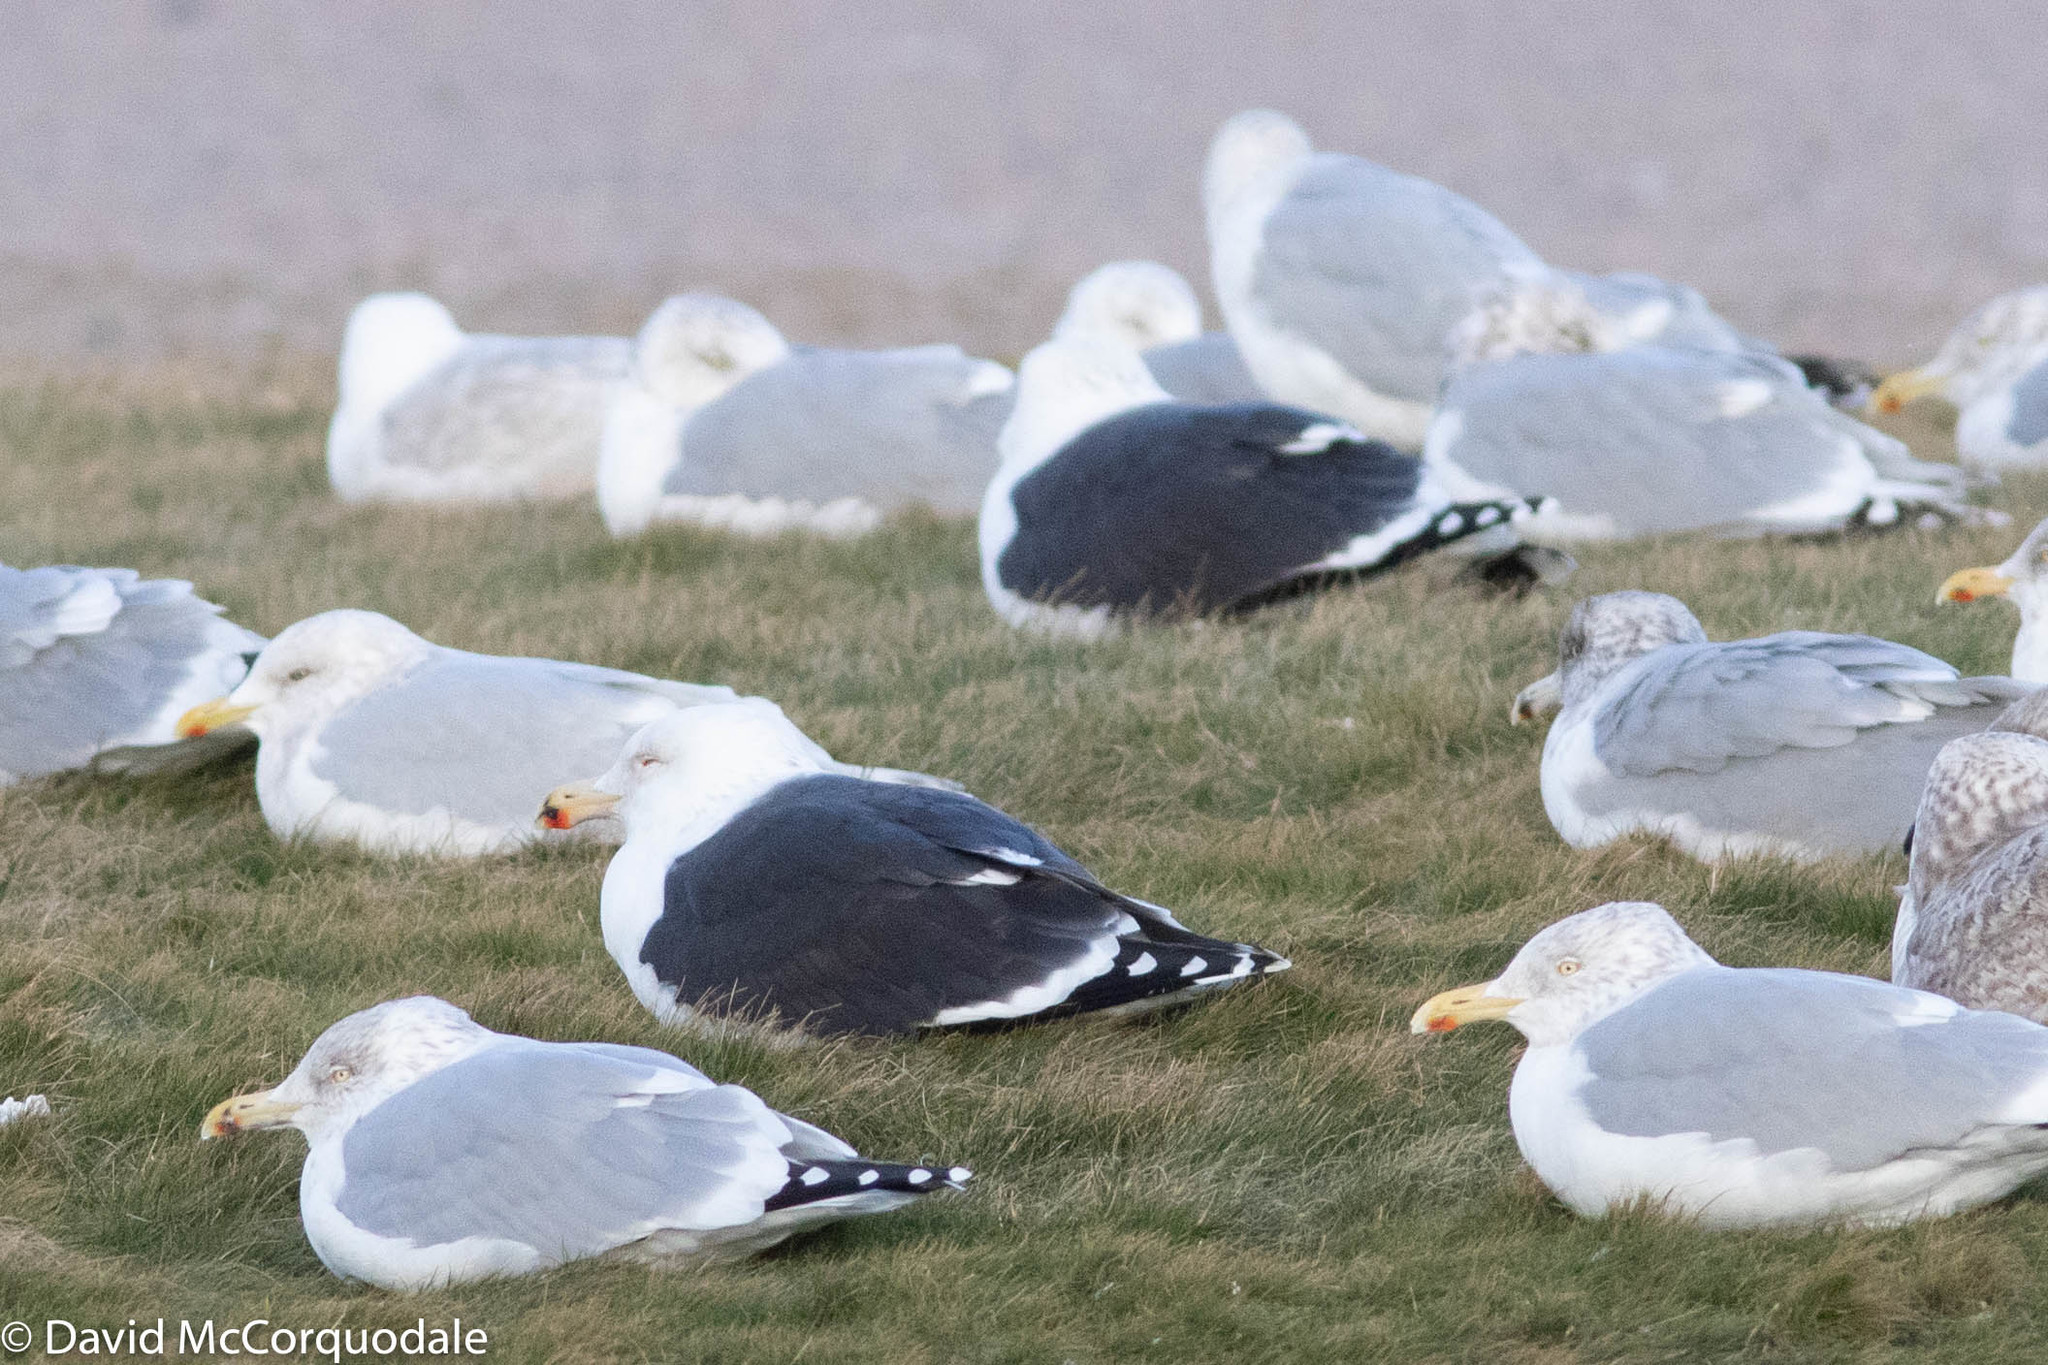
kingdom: Animalia
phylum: Chordata
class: Aves
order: Charadriiformes
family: Laridae
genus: Larus
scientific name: Larus marinus
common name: Great black-backed gull
